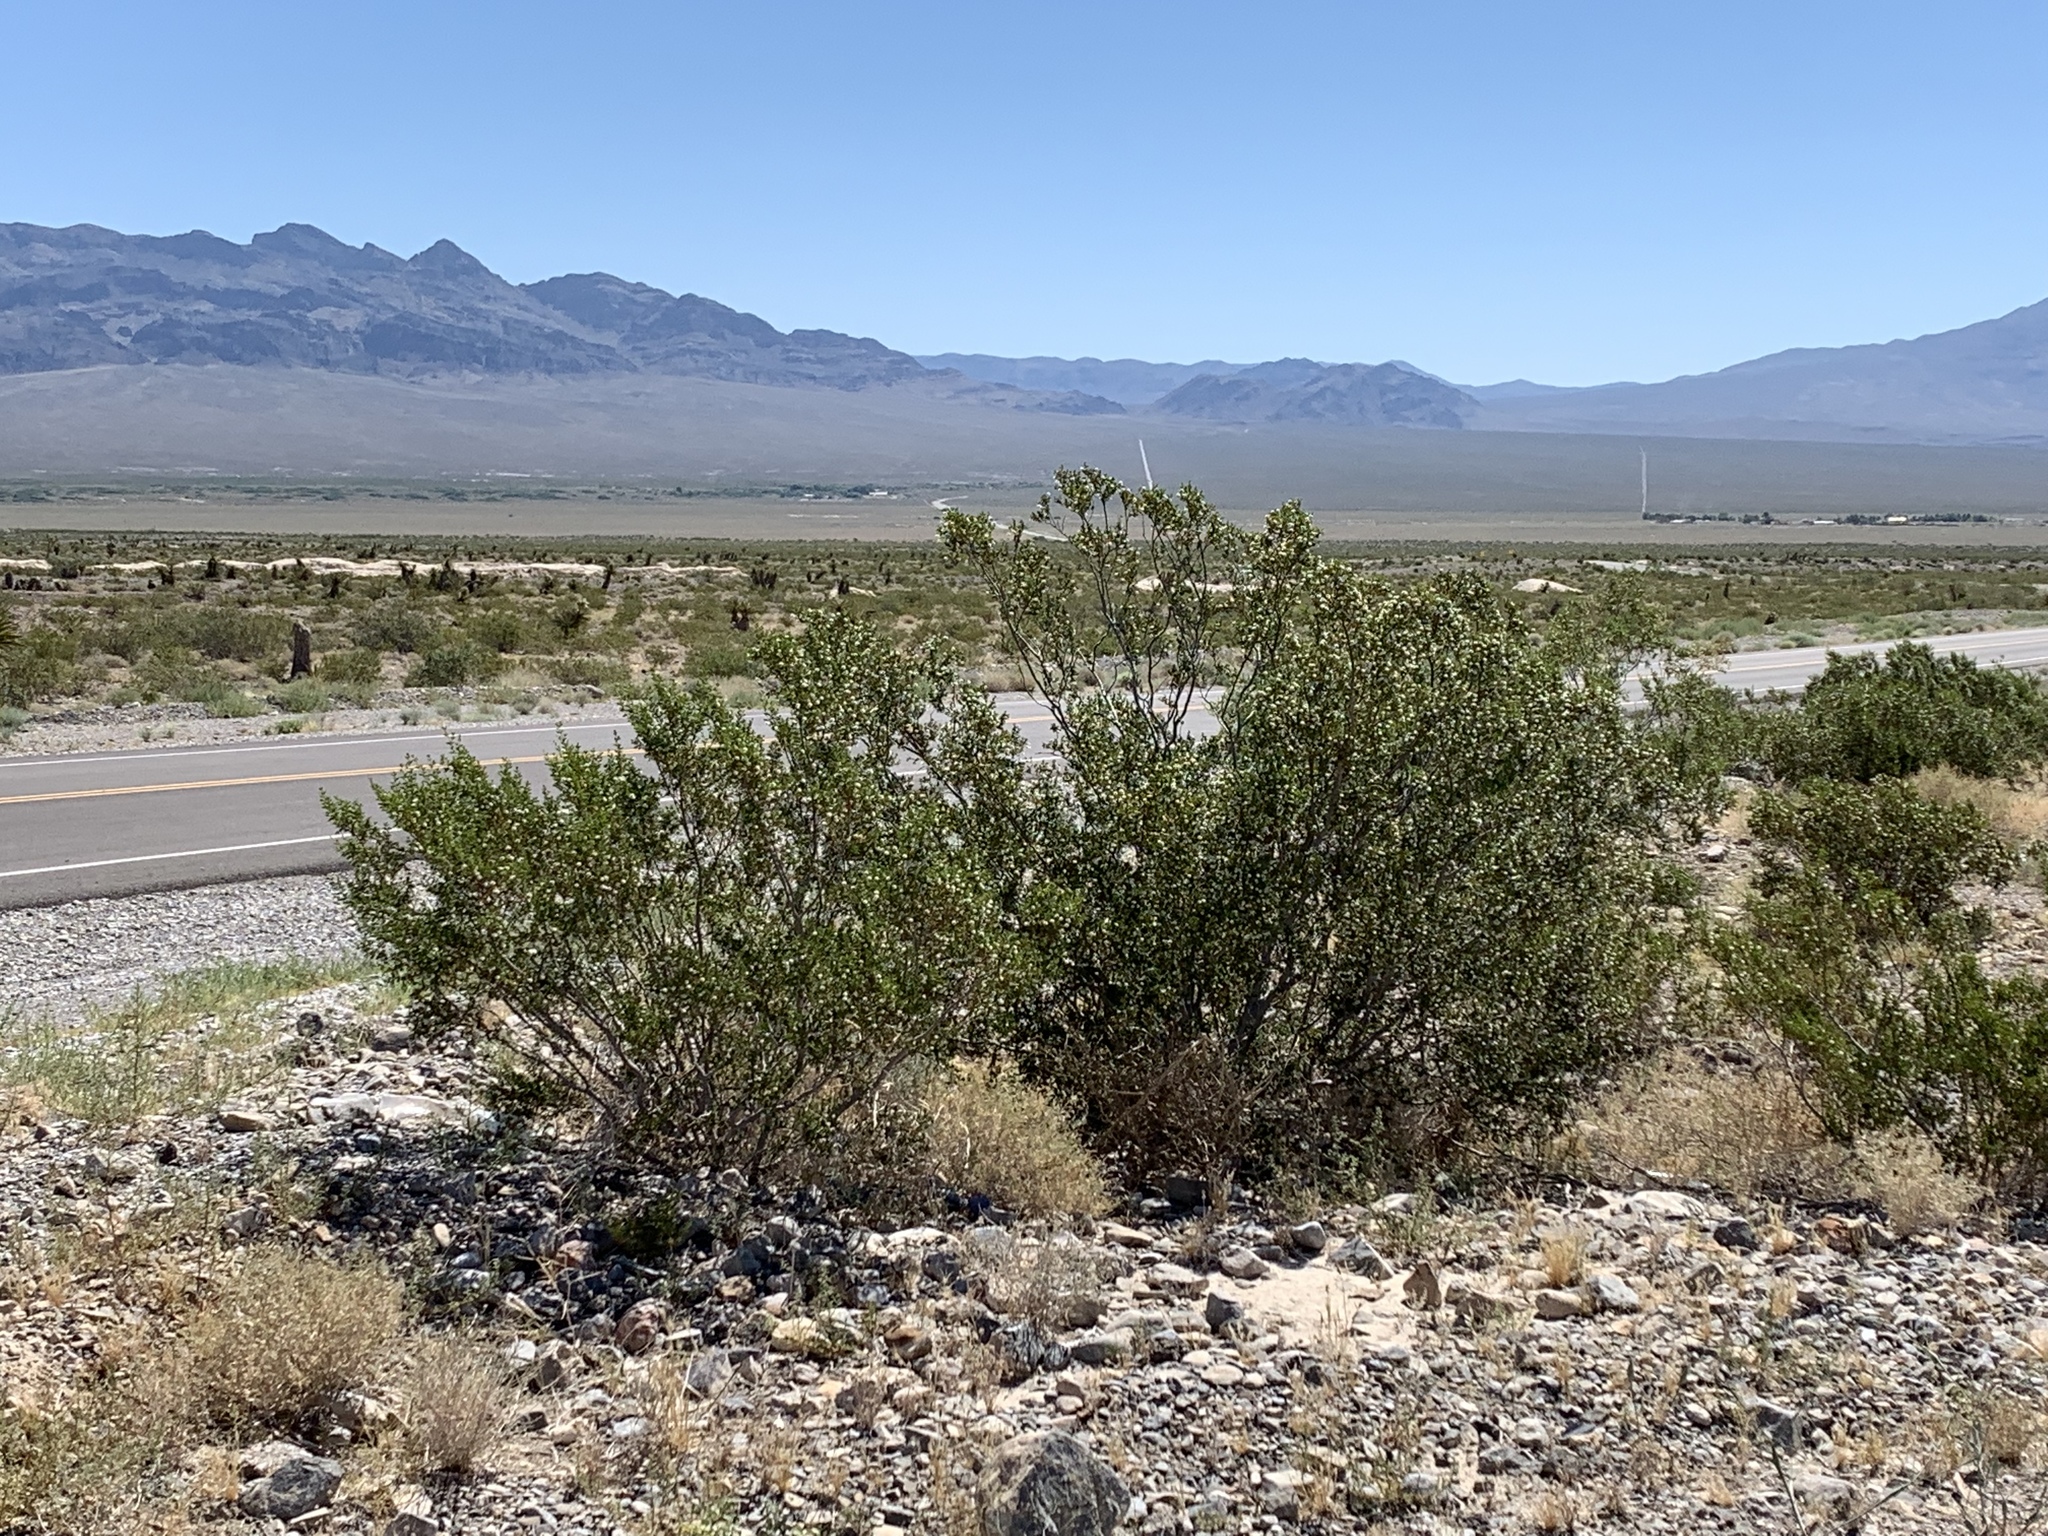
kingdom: Plantae
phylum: Tracheophyta
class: Magnoliopsida
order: Zygophyllales
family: Zygophyllaceae
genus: Larrea
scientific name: Larrea tridentata
